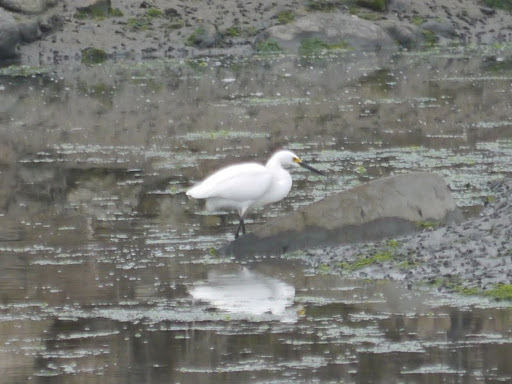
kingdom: Animalia
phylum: Chordata
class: Aves
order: Pelecaniformes
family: Ardeidae
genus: Egretta
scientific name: Egretta thula
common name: Snowy egret
